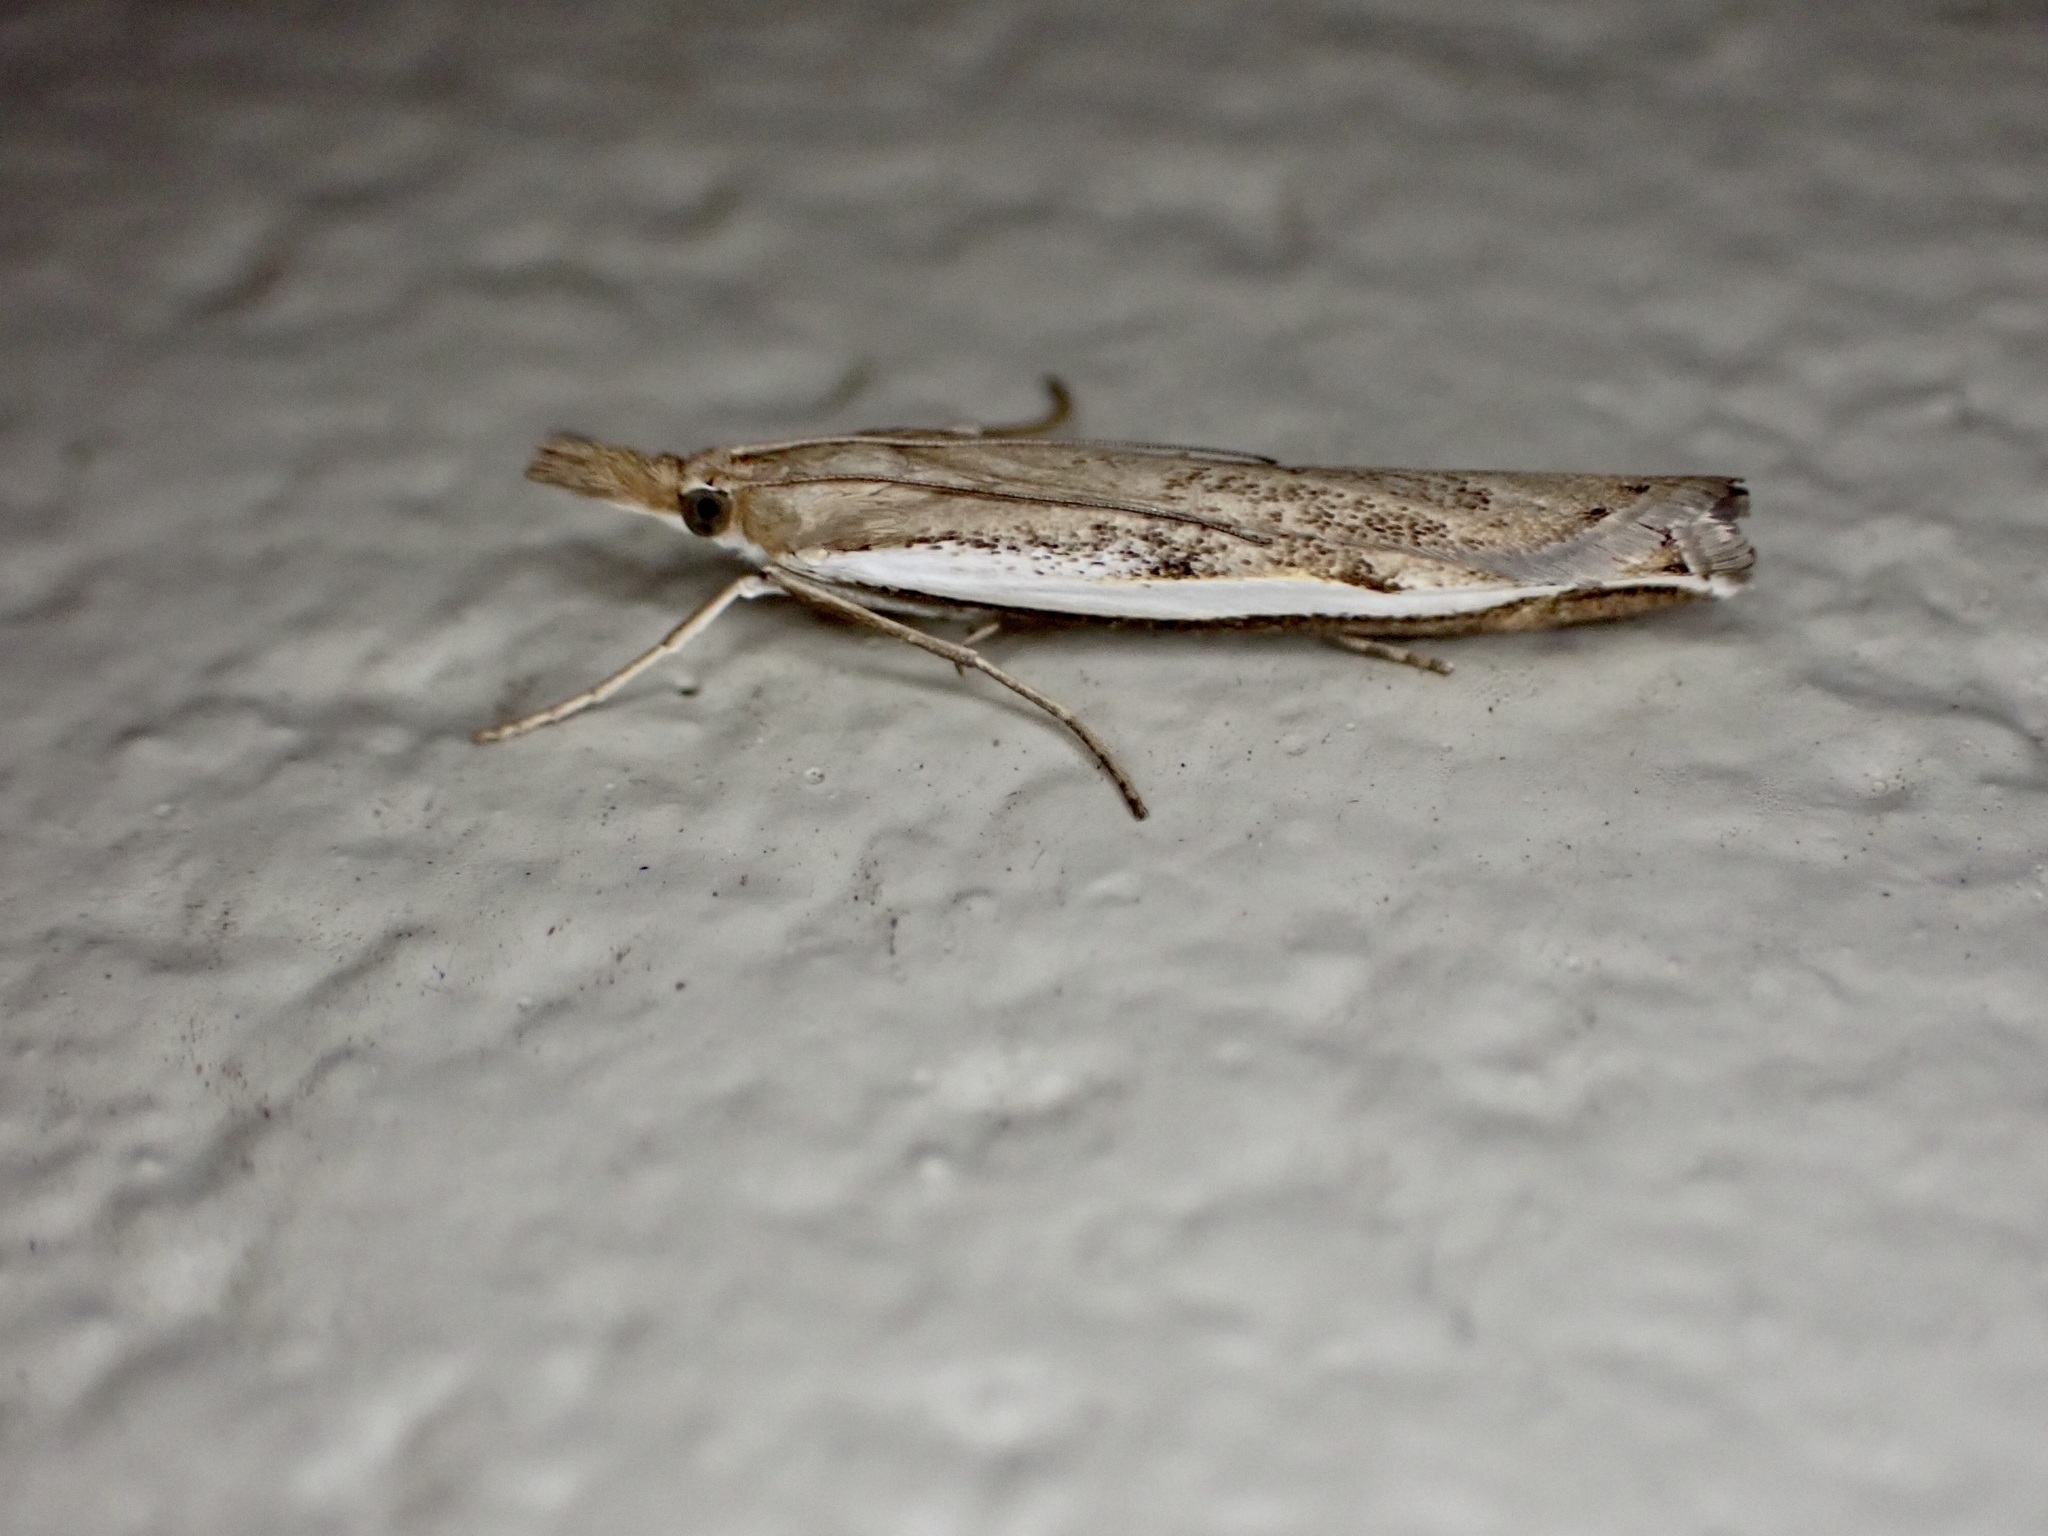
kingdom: Animalia
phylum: Arthropoda
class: Insecta
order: Lepidoptera
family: Crambidae
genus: Orocrambus
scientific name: Orocrambus flexuosellus
